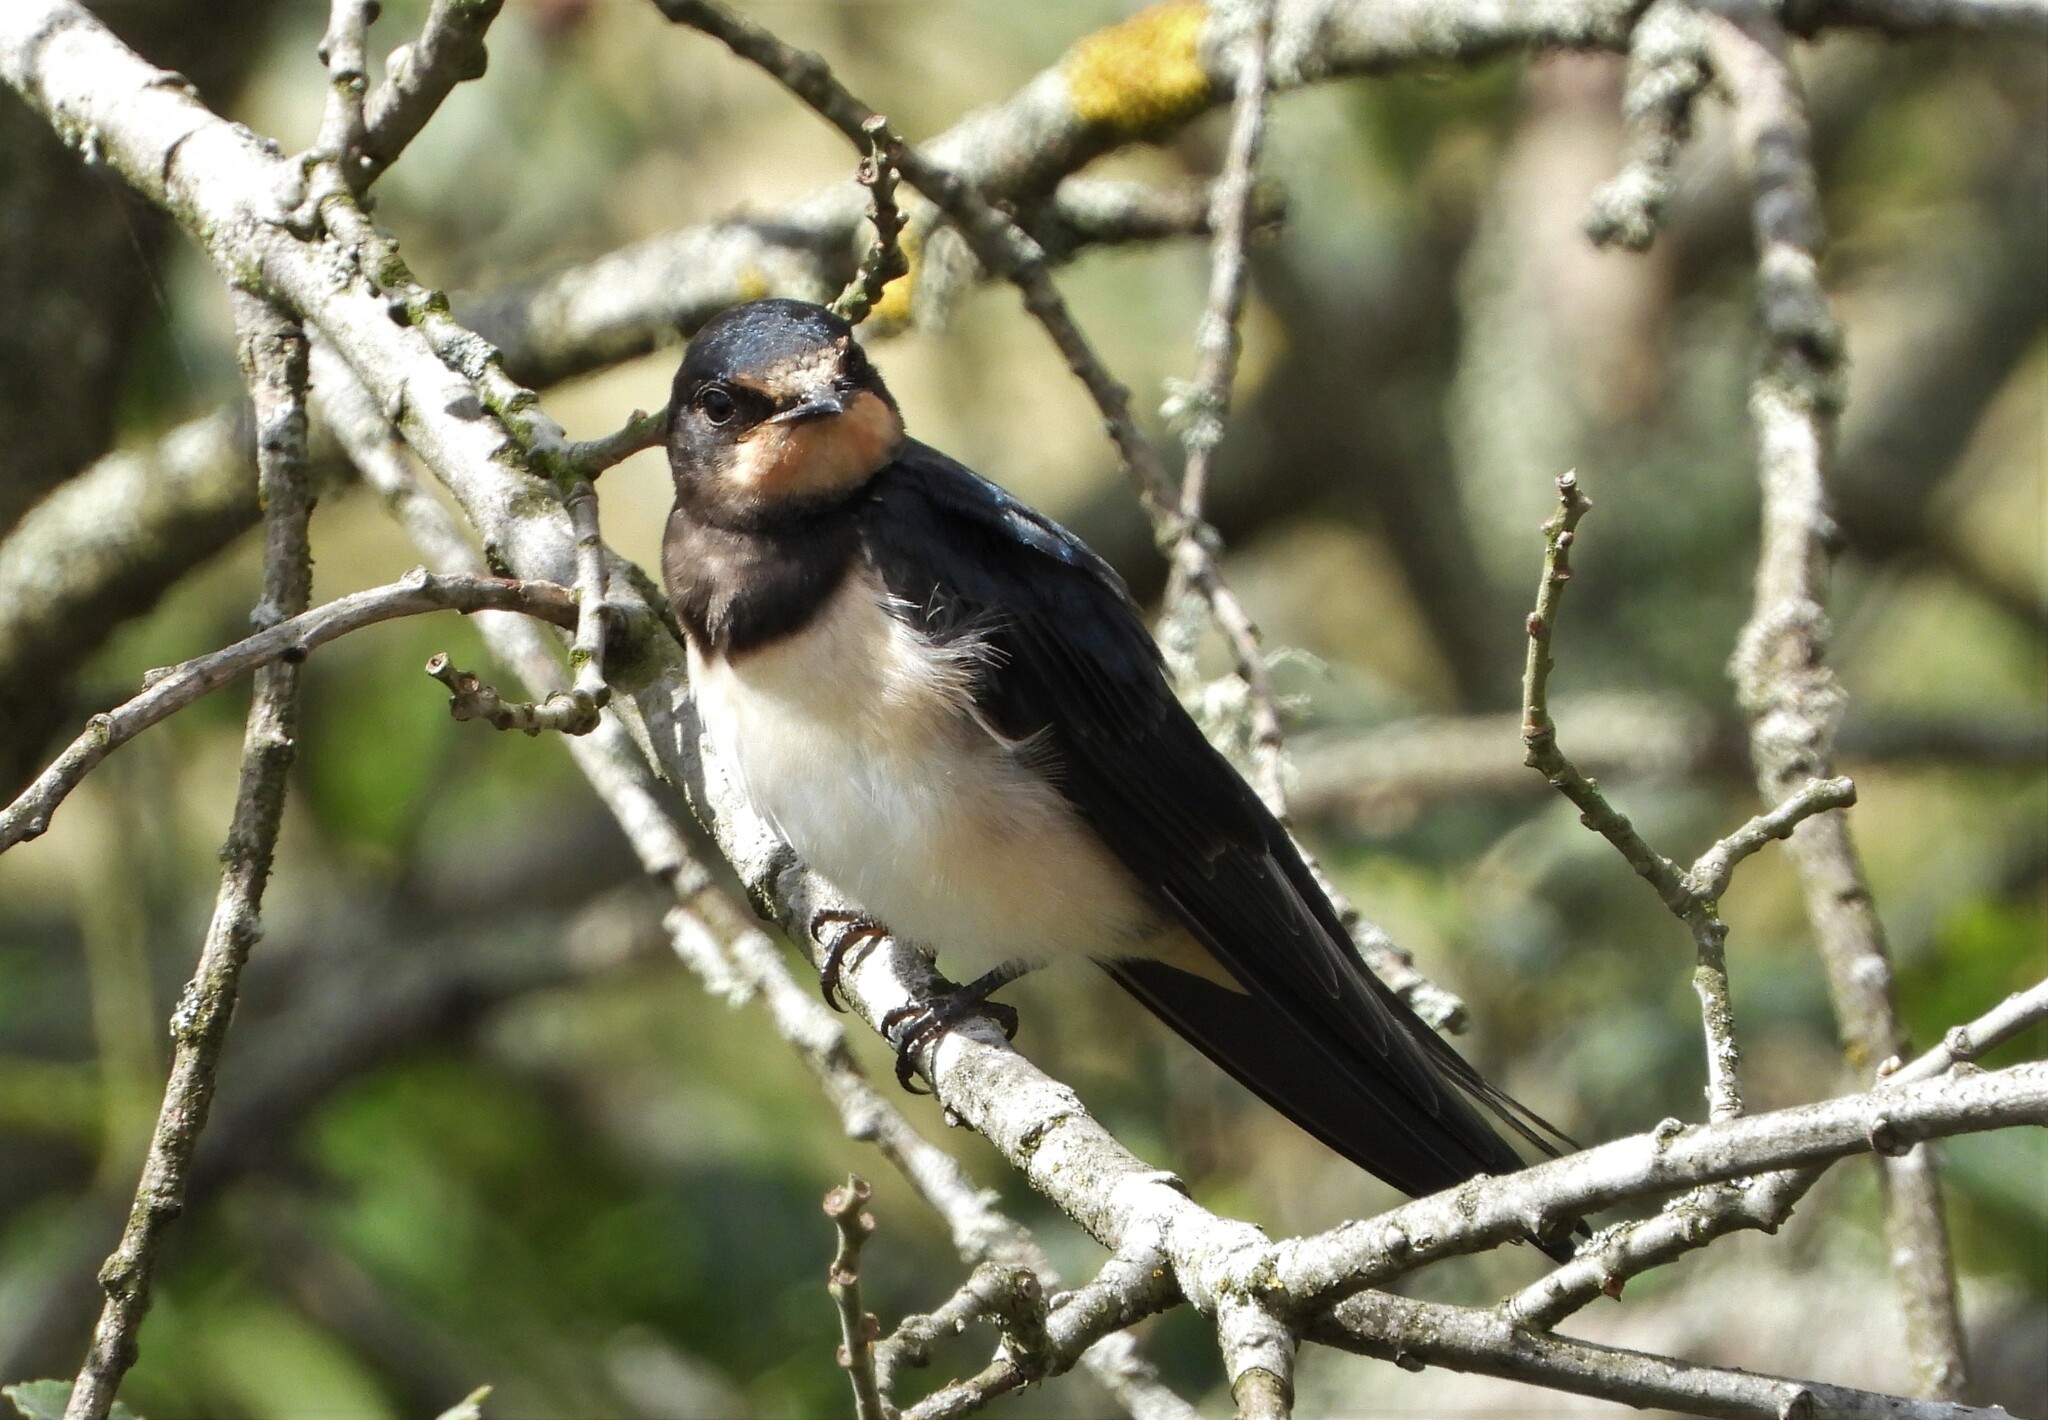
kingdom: Animalia
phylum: Chordata
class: Aves
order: Passeriformes
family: Hirundinidae
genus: Hirundo
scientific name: Hirundo rustica
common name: Barn swallow
